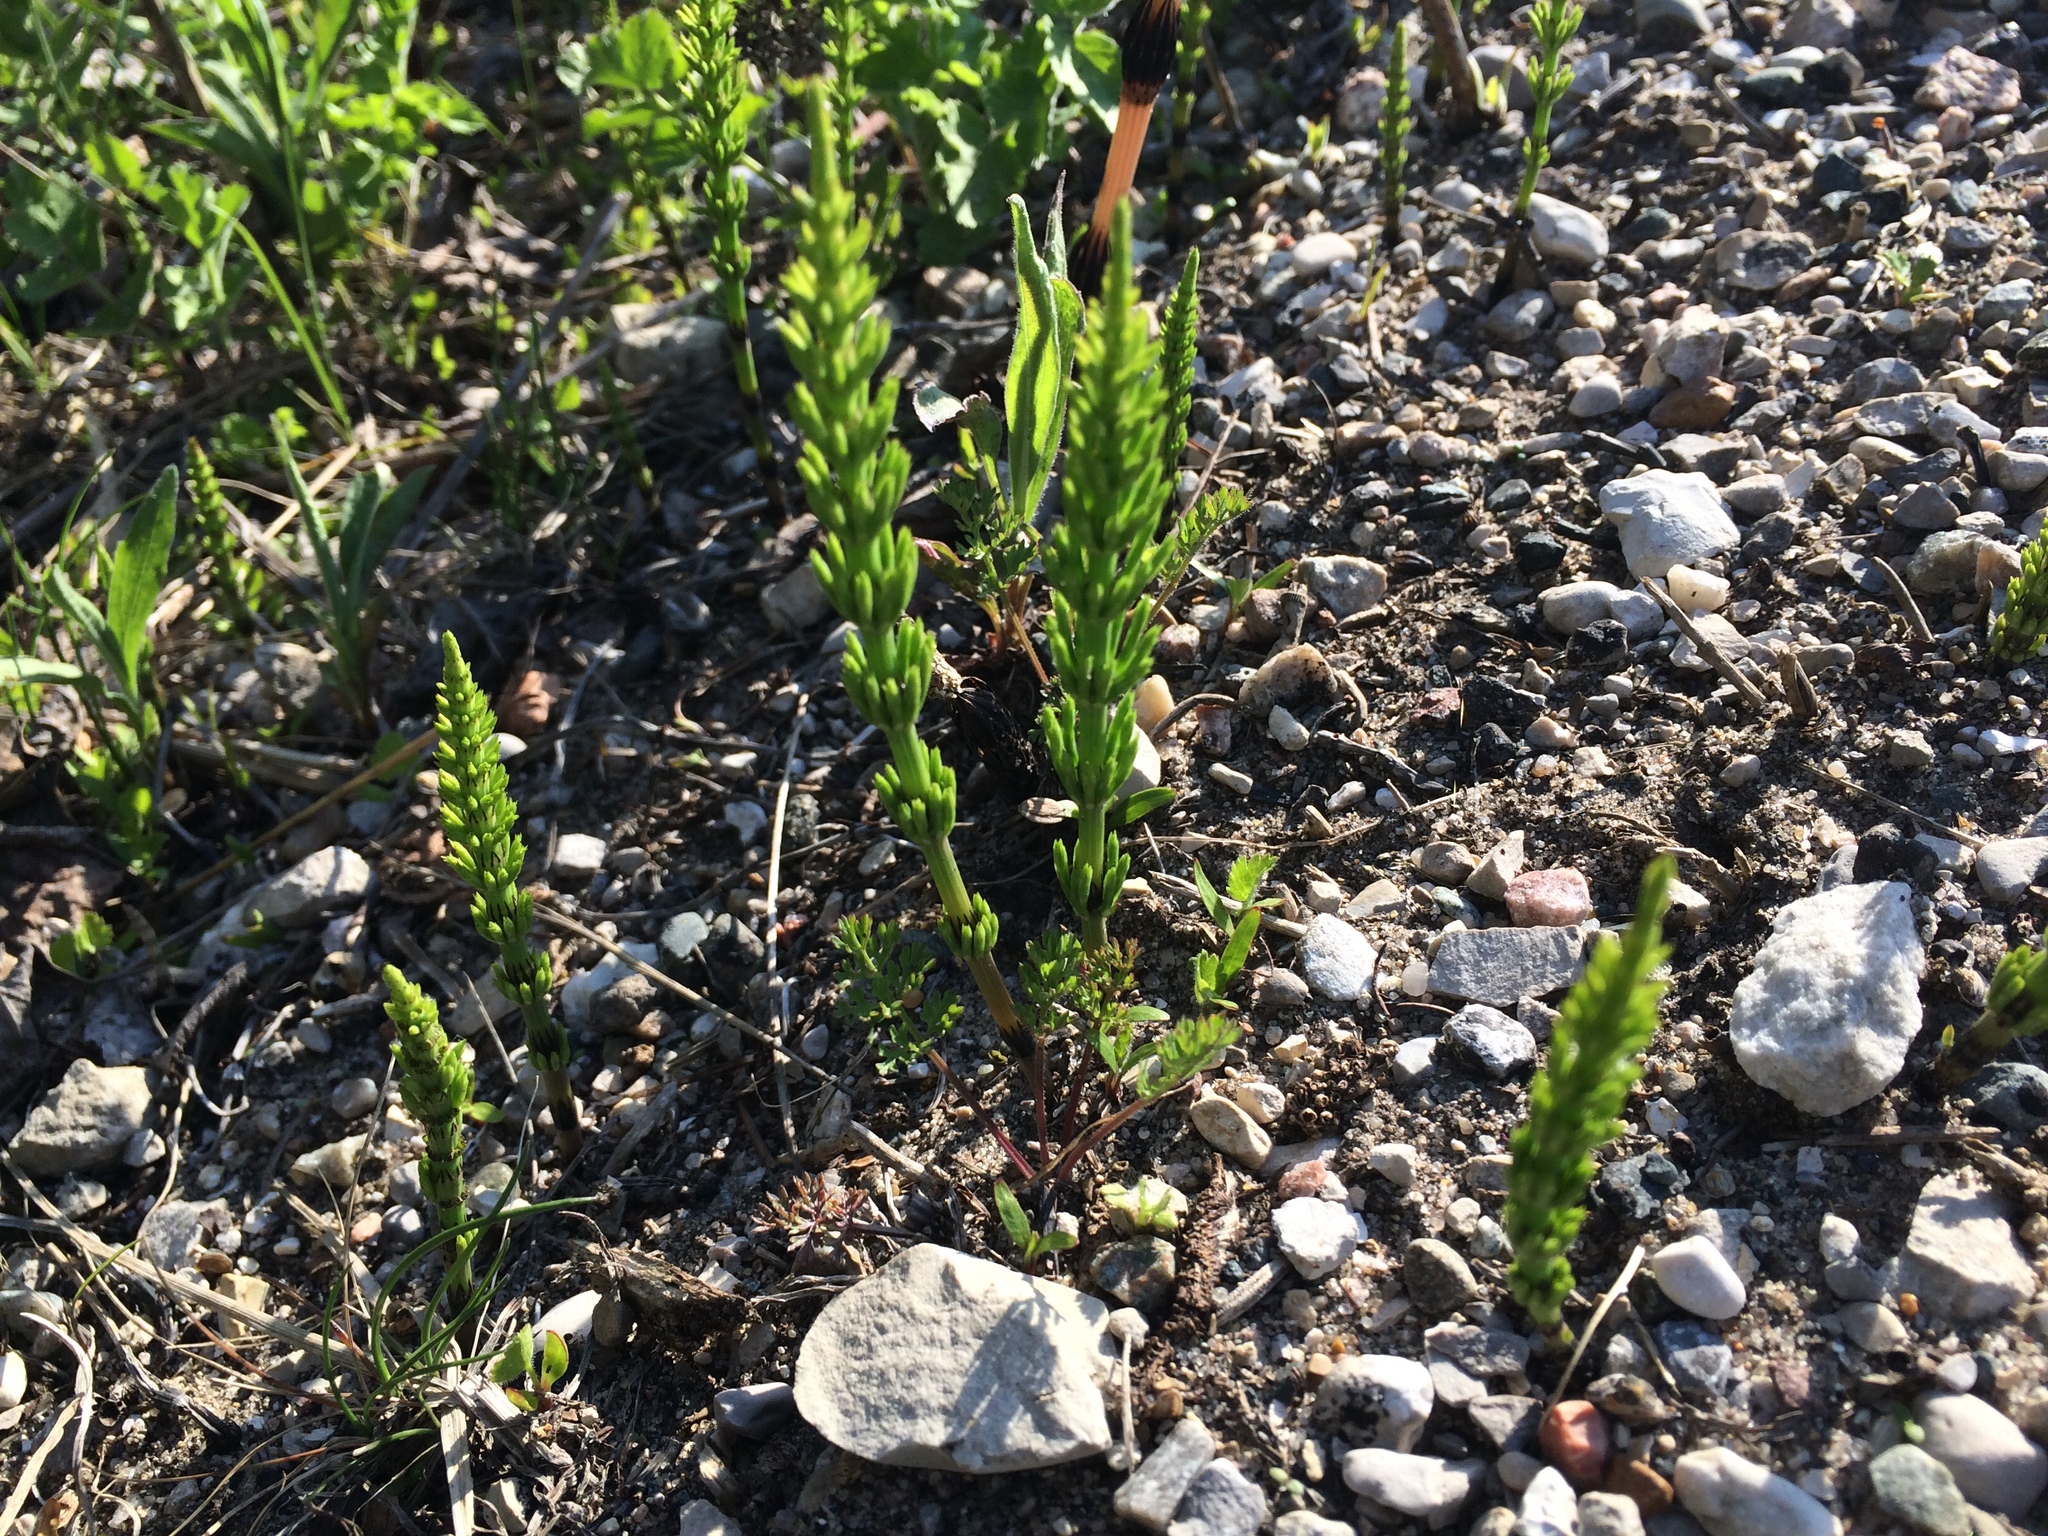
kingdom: Plantae
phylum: Tracheophyta
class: Polypodiopsida
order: Equisetales
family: Equisetaceae
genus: Equisetum
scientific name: Equisetum arvense
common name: Field horsetail
